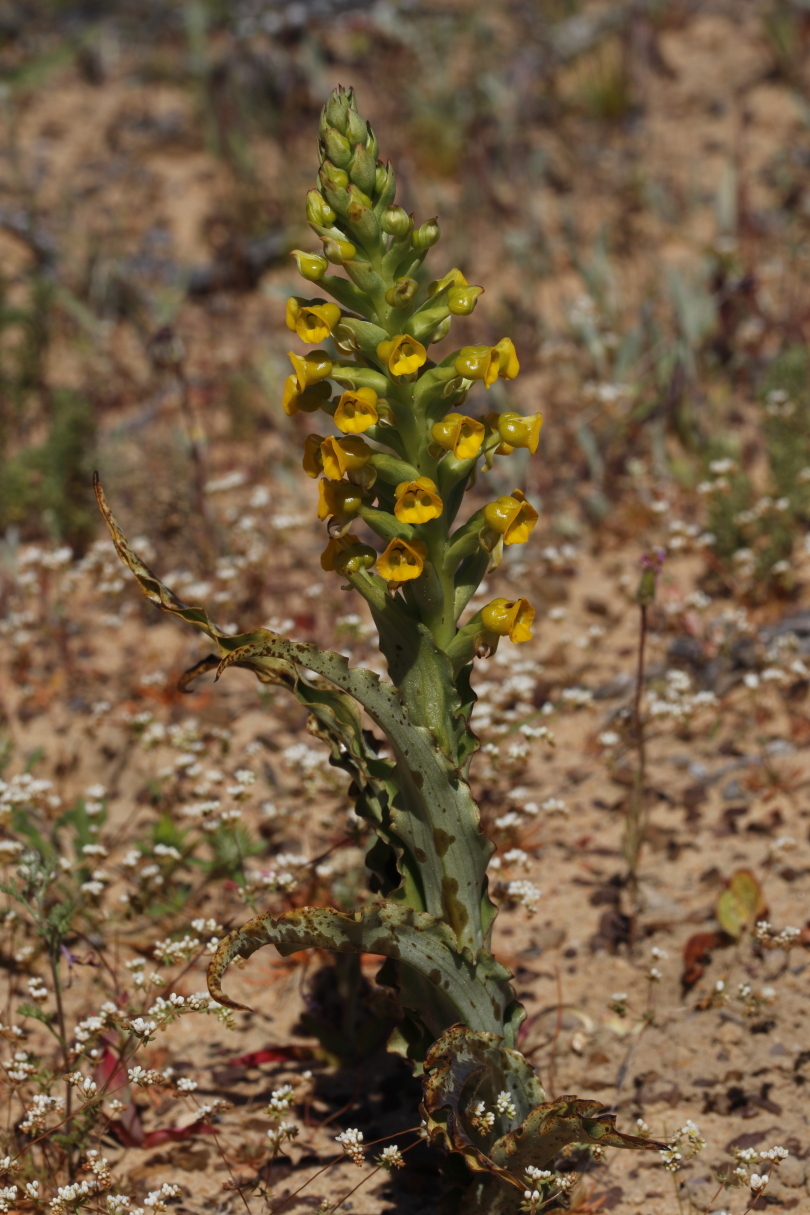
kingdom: Plantae
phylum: Tracheophyta
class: Liliopsida
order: Asparagales
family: Orchidaceae
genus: Corycium
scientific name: Corycium crispum
